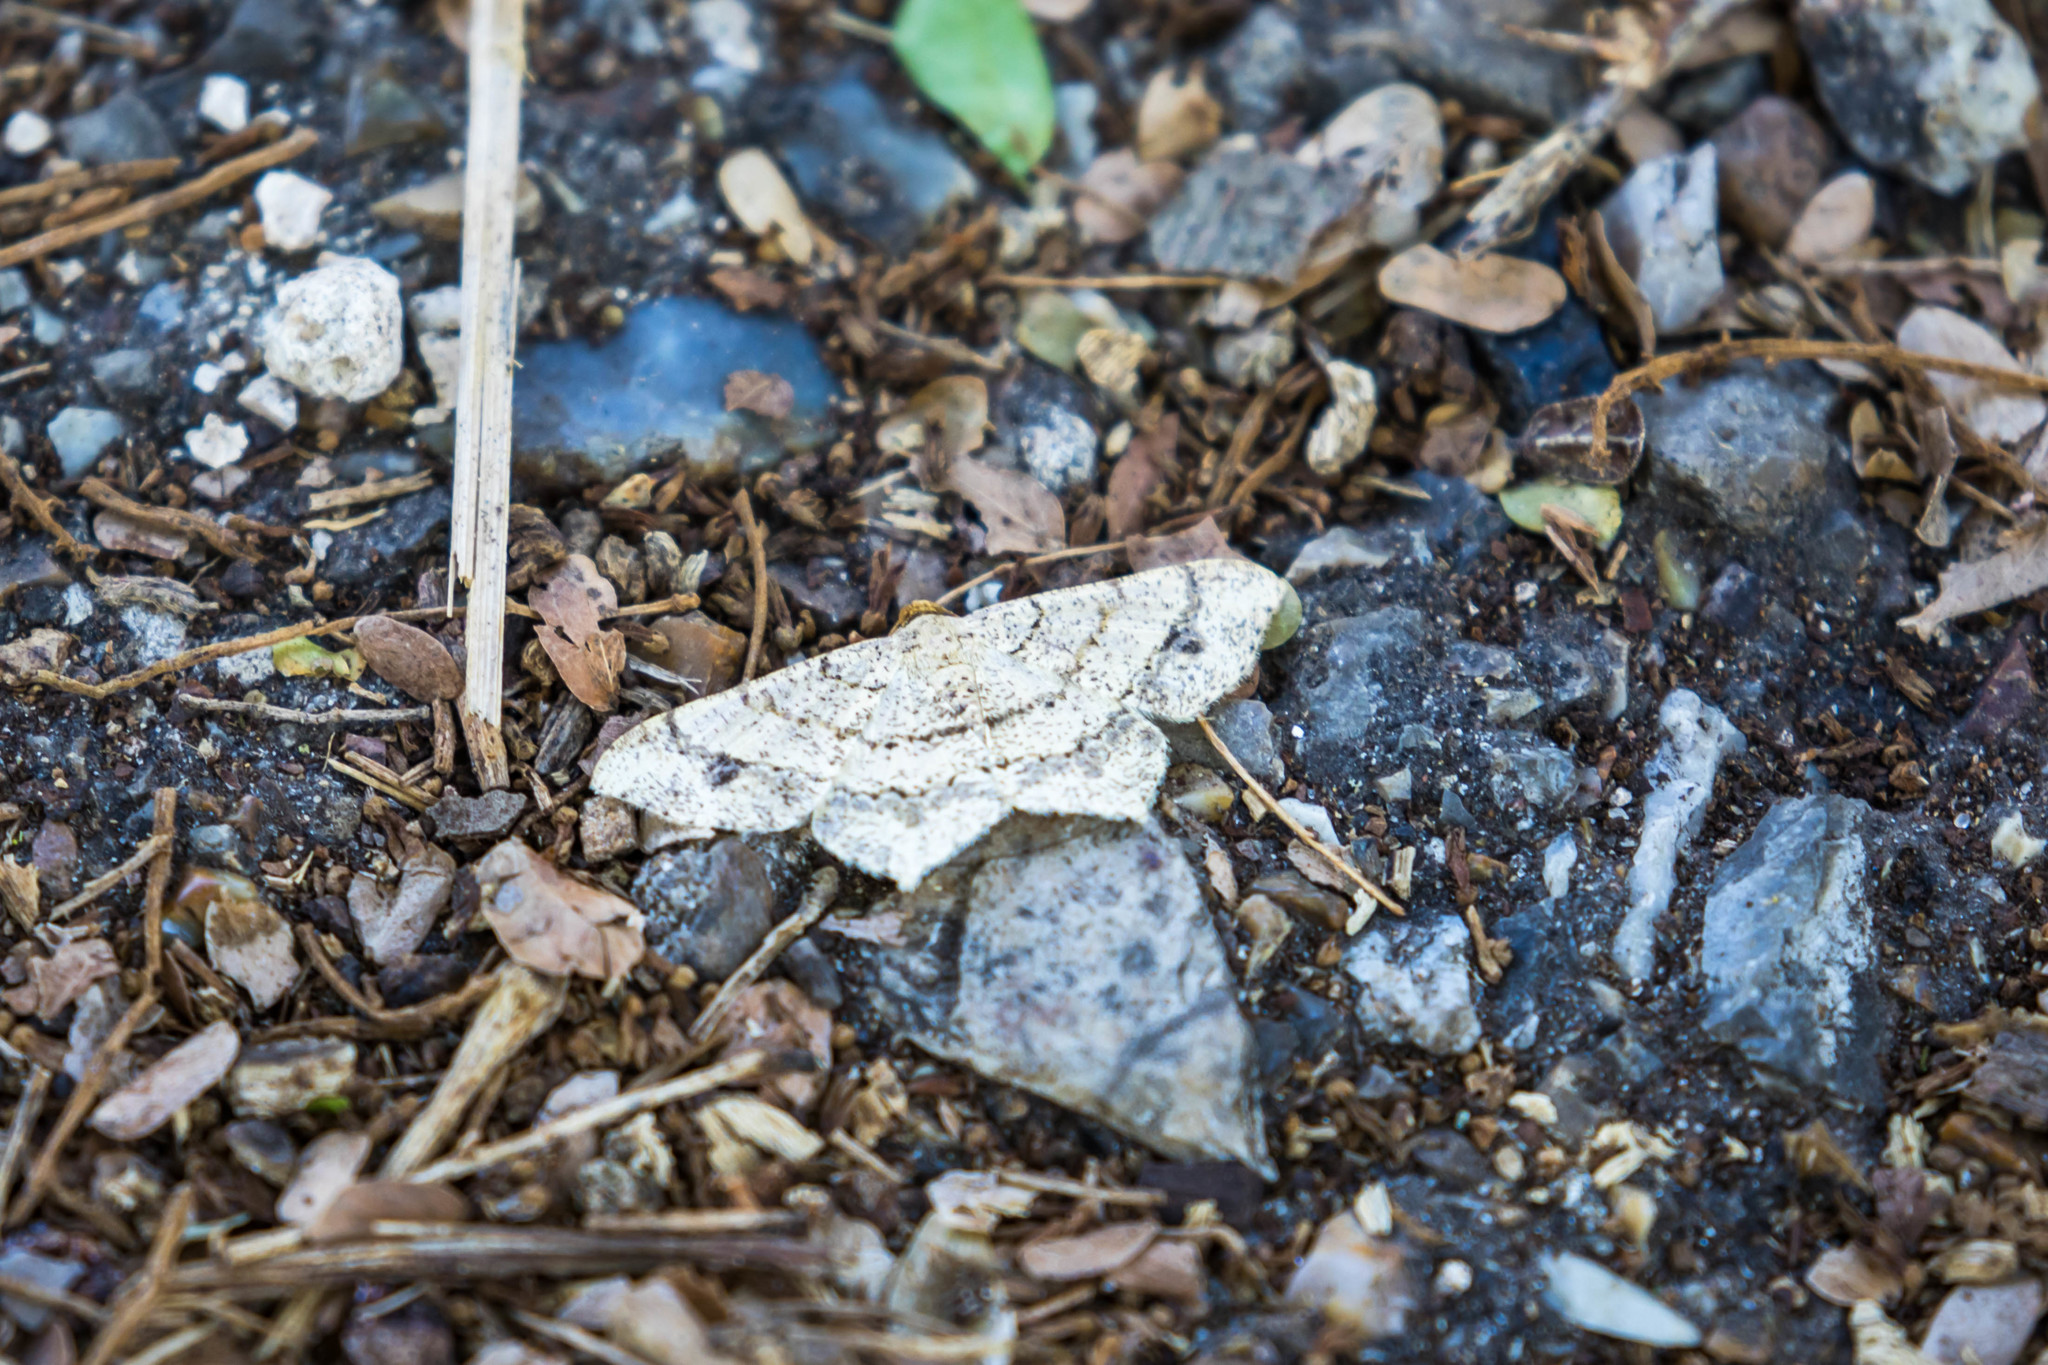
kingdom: Animalia
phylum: Arthropoda
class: Insecta
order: Lepidoptera
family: Geometridae
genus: Macaria
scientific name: Macaria abydata
